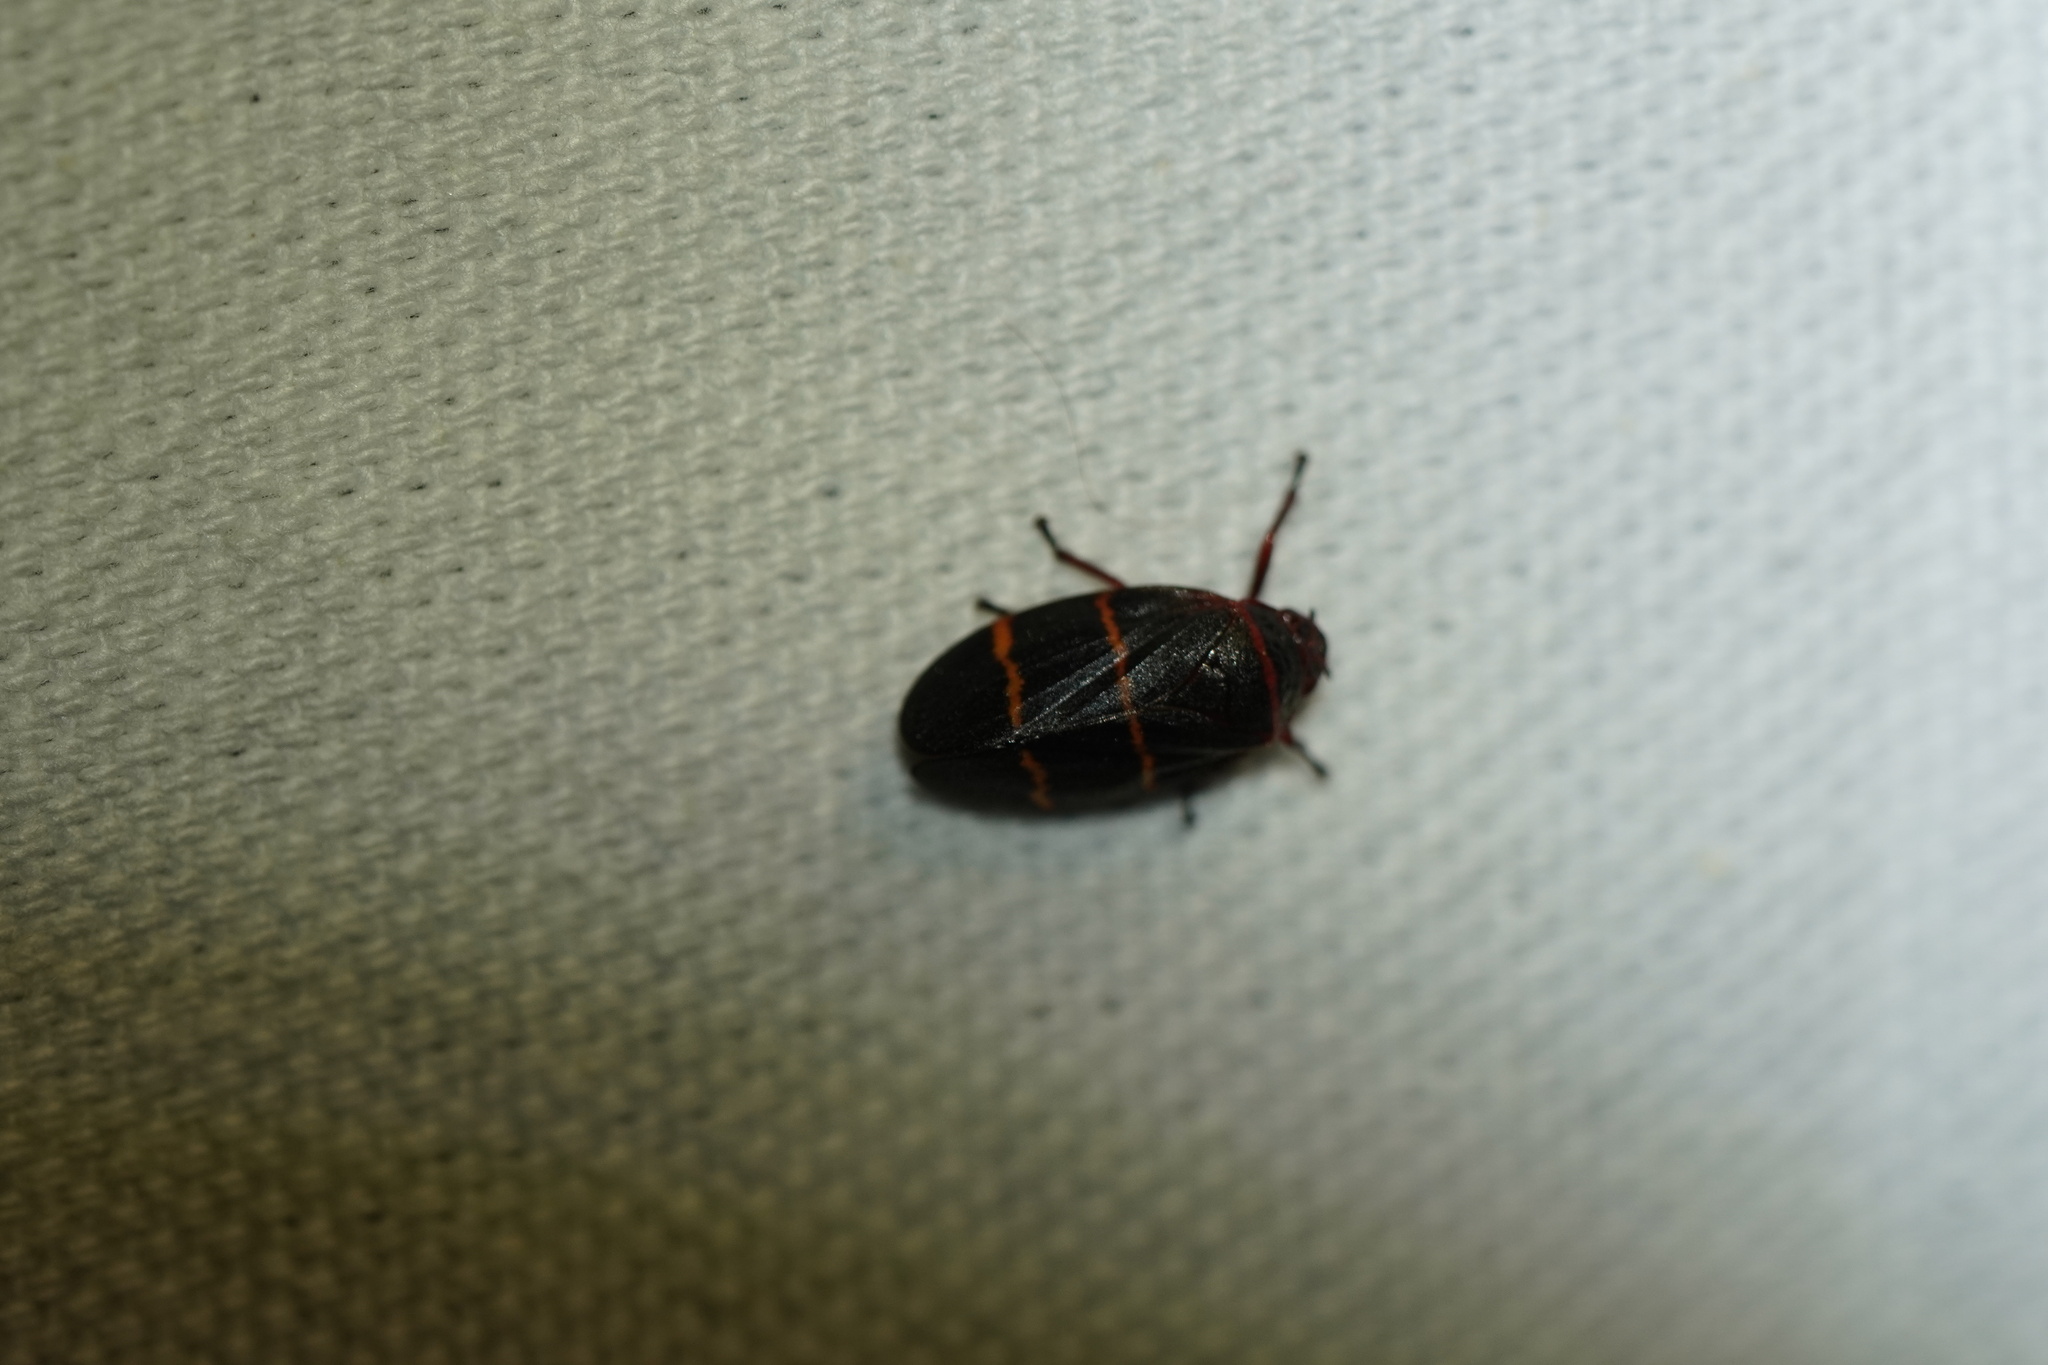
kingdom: Animalia
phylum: Arthropoda
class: Insecta
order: Hemiptera
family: Cercopidae
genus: Prosapia
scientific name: Prosapia bicincta
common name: Twolined spittlebug
